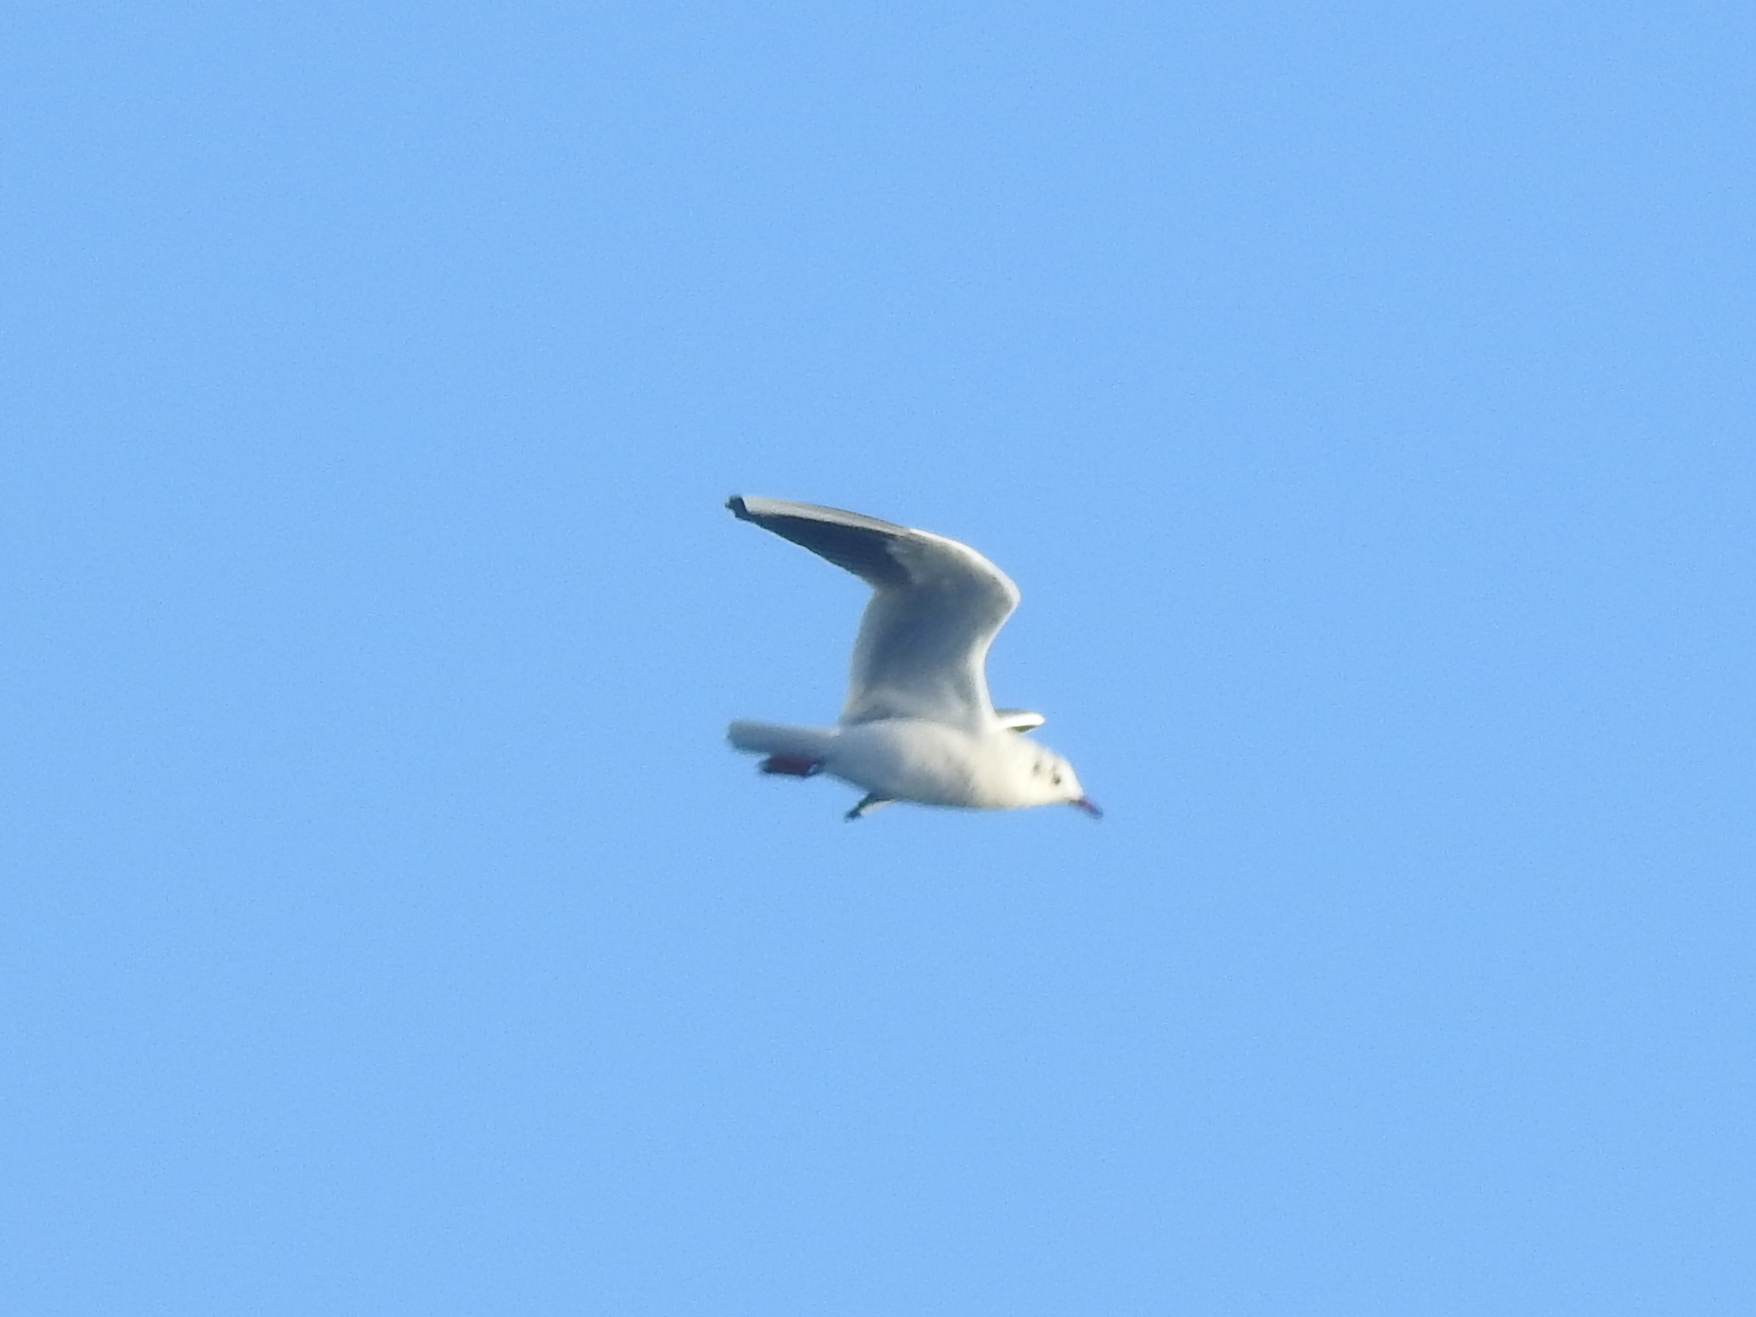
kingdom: Animalia
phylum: Chordata
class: Aves
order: Charadriiformes
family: Laridae
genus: Chroicocephalus
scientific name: Chroicocephalus ridibundus
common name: Black-headed gull
